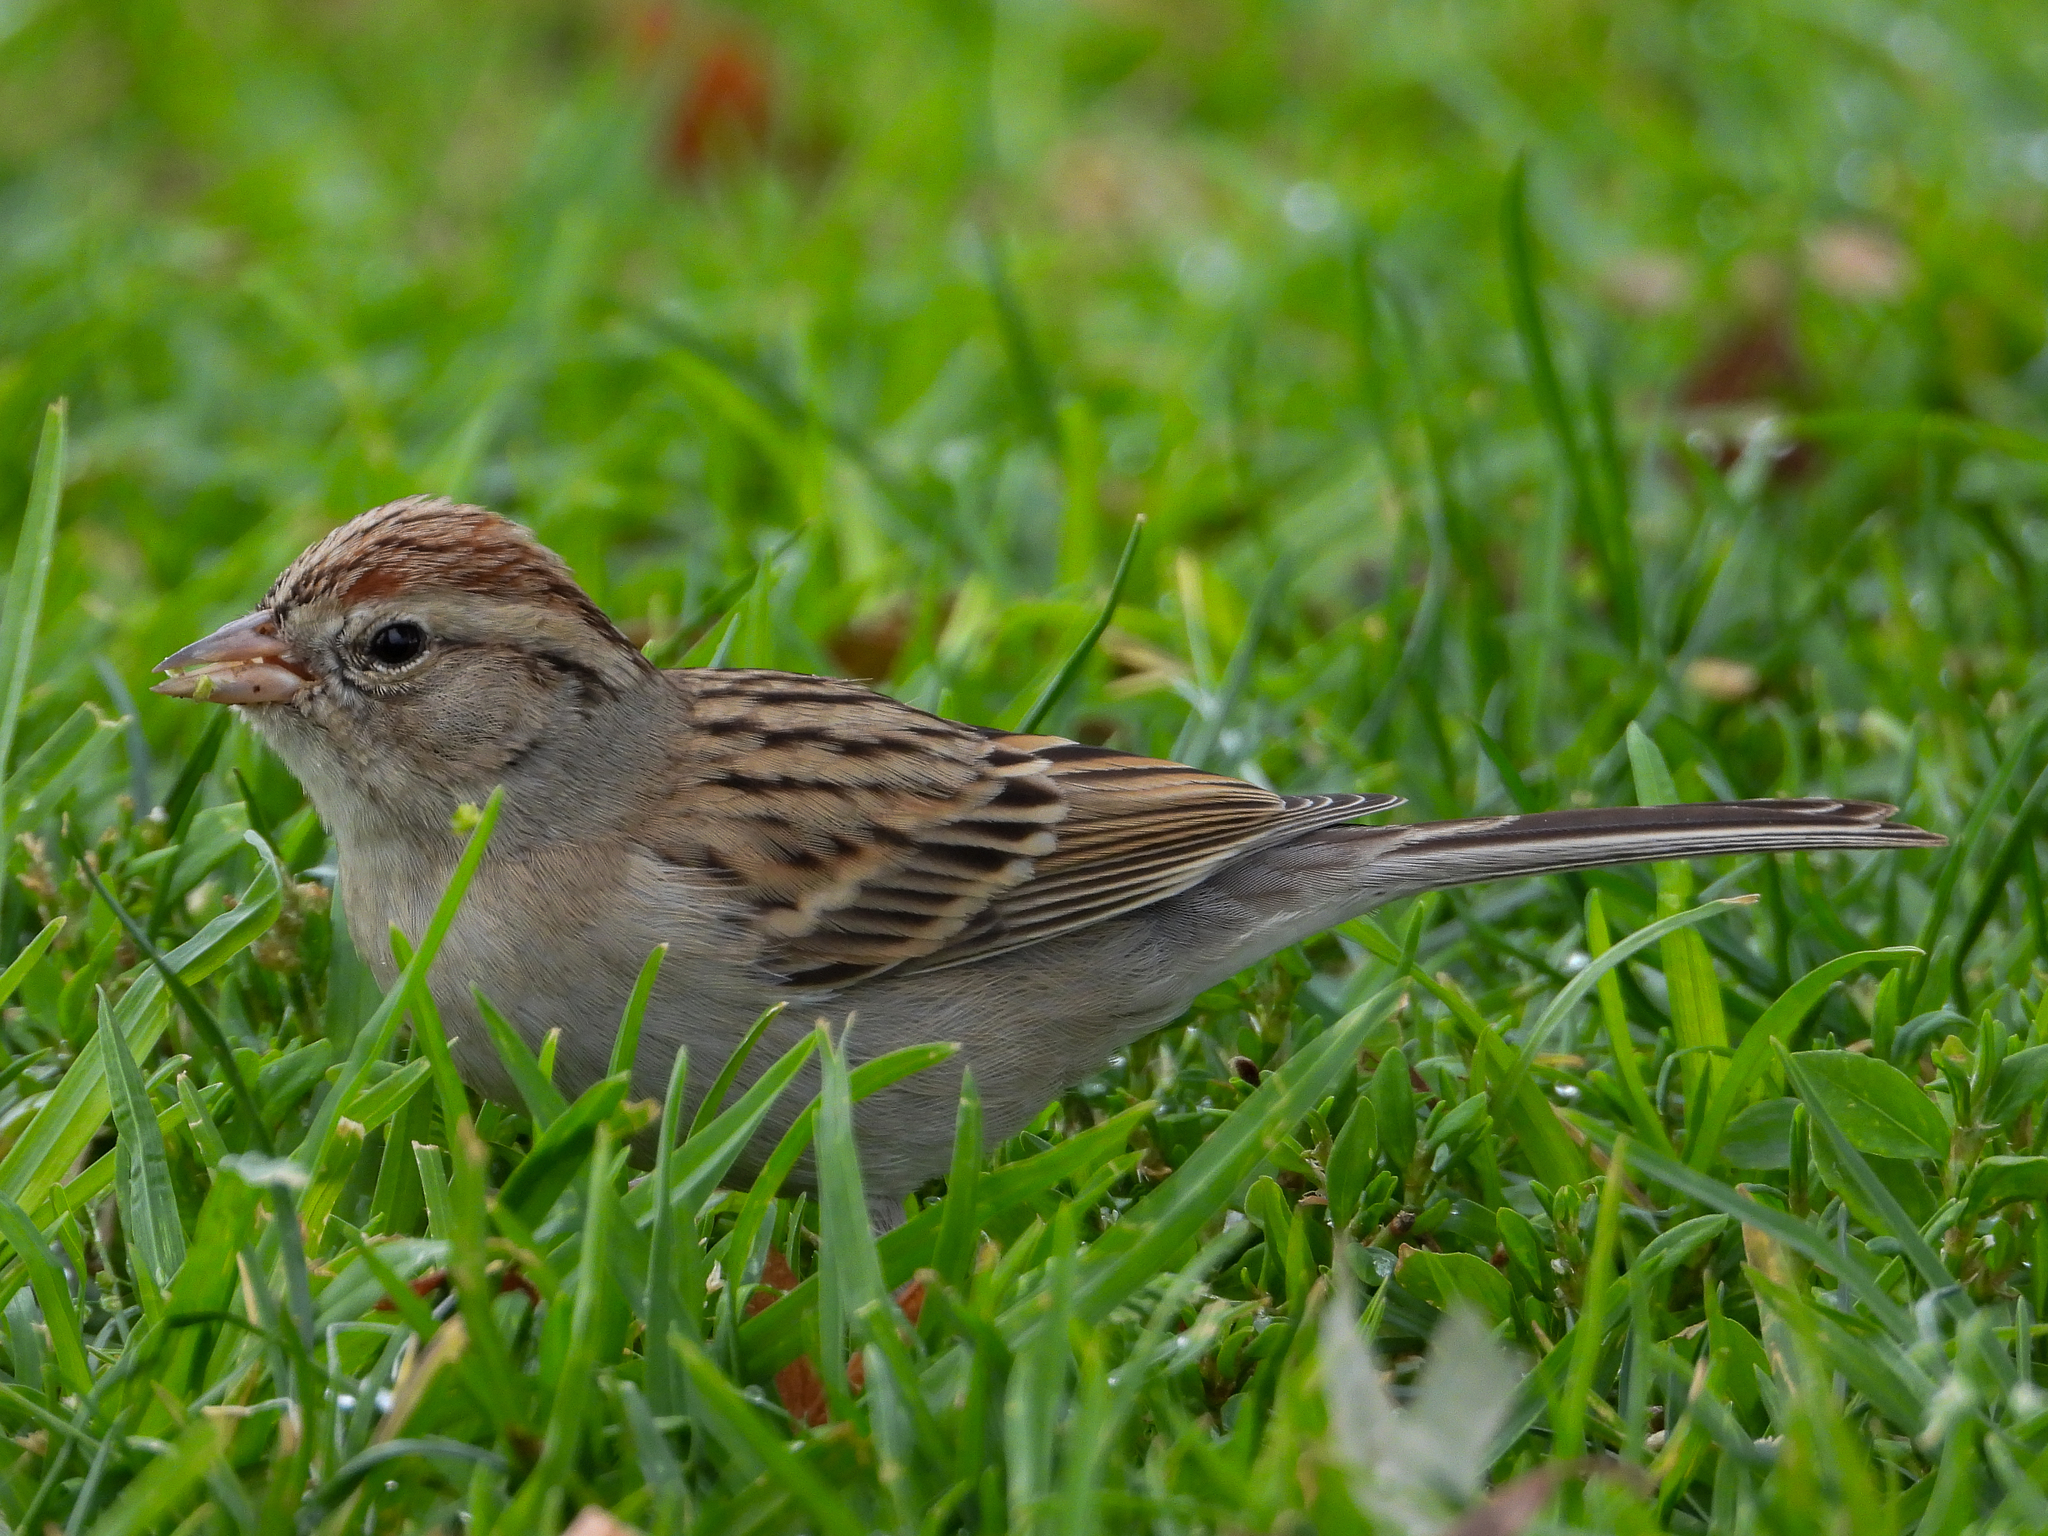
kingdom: Animalia
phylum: Chordata
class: Aves
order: Passeriformes
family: Passerellidae
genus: Spizella
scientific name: Spizella passerina
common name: Chipping sparrow
